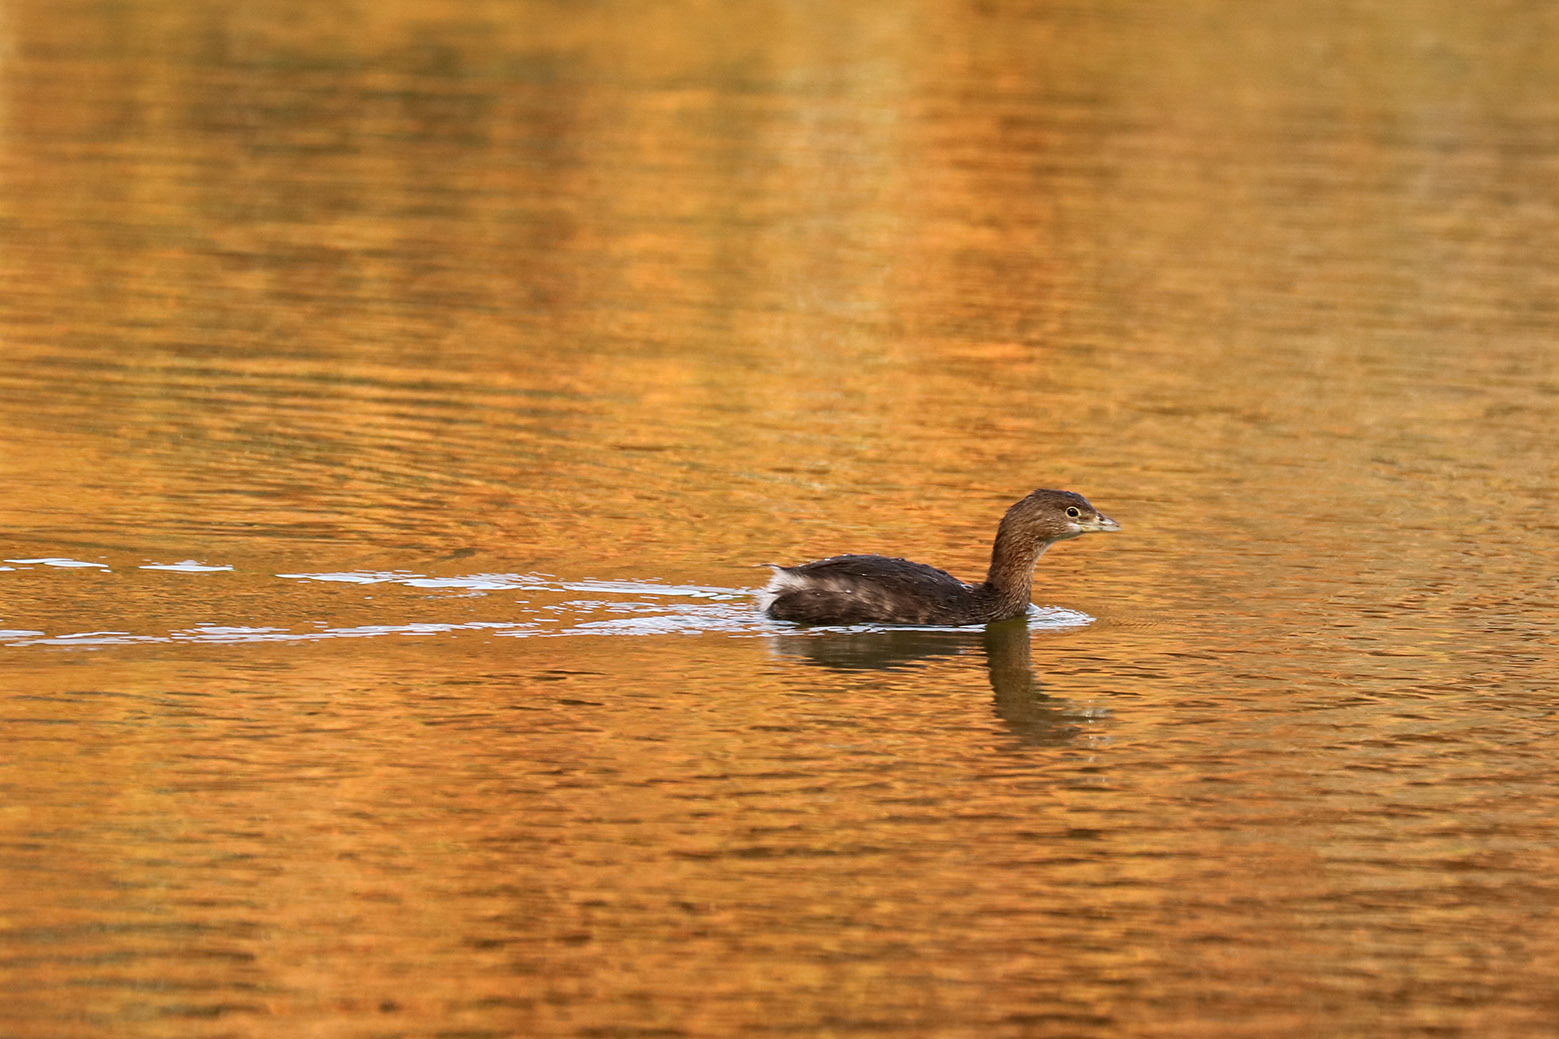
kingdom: Animalia
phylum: Chordata
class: Aves
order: Podicipediformes
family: Podicipedidae
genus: Podilymbus
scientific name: Podilymbus podiceps
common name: Pied-billed grebe
